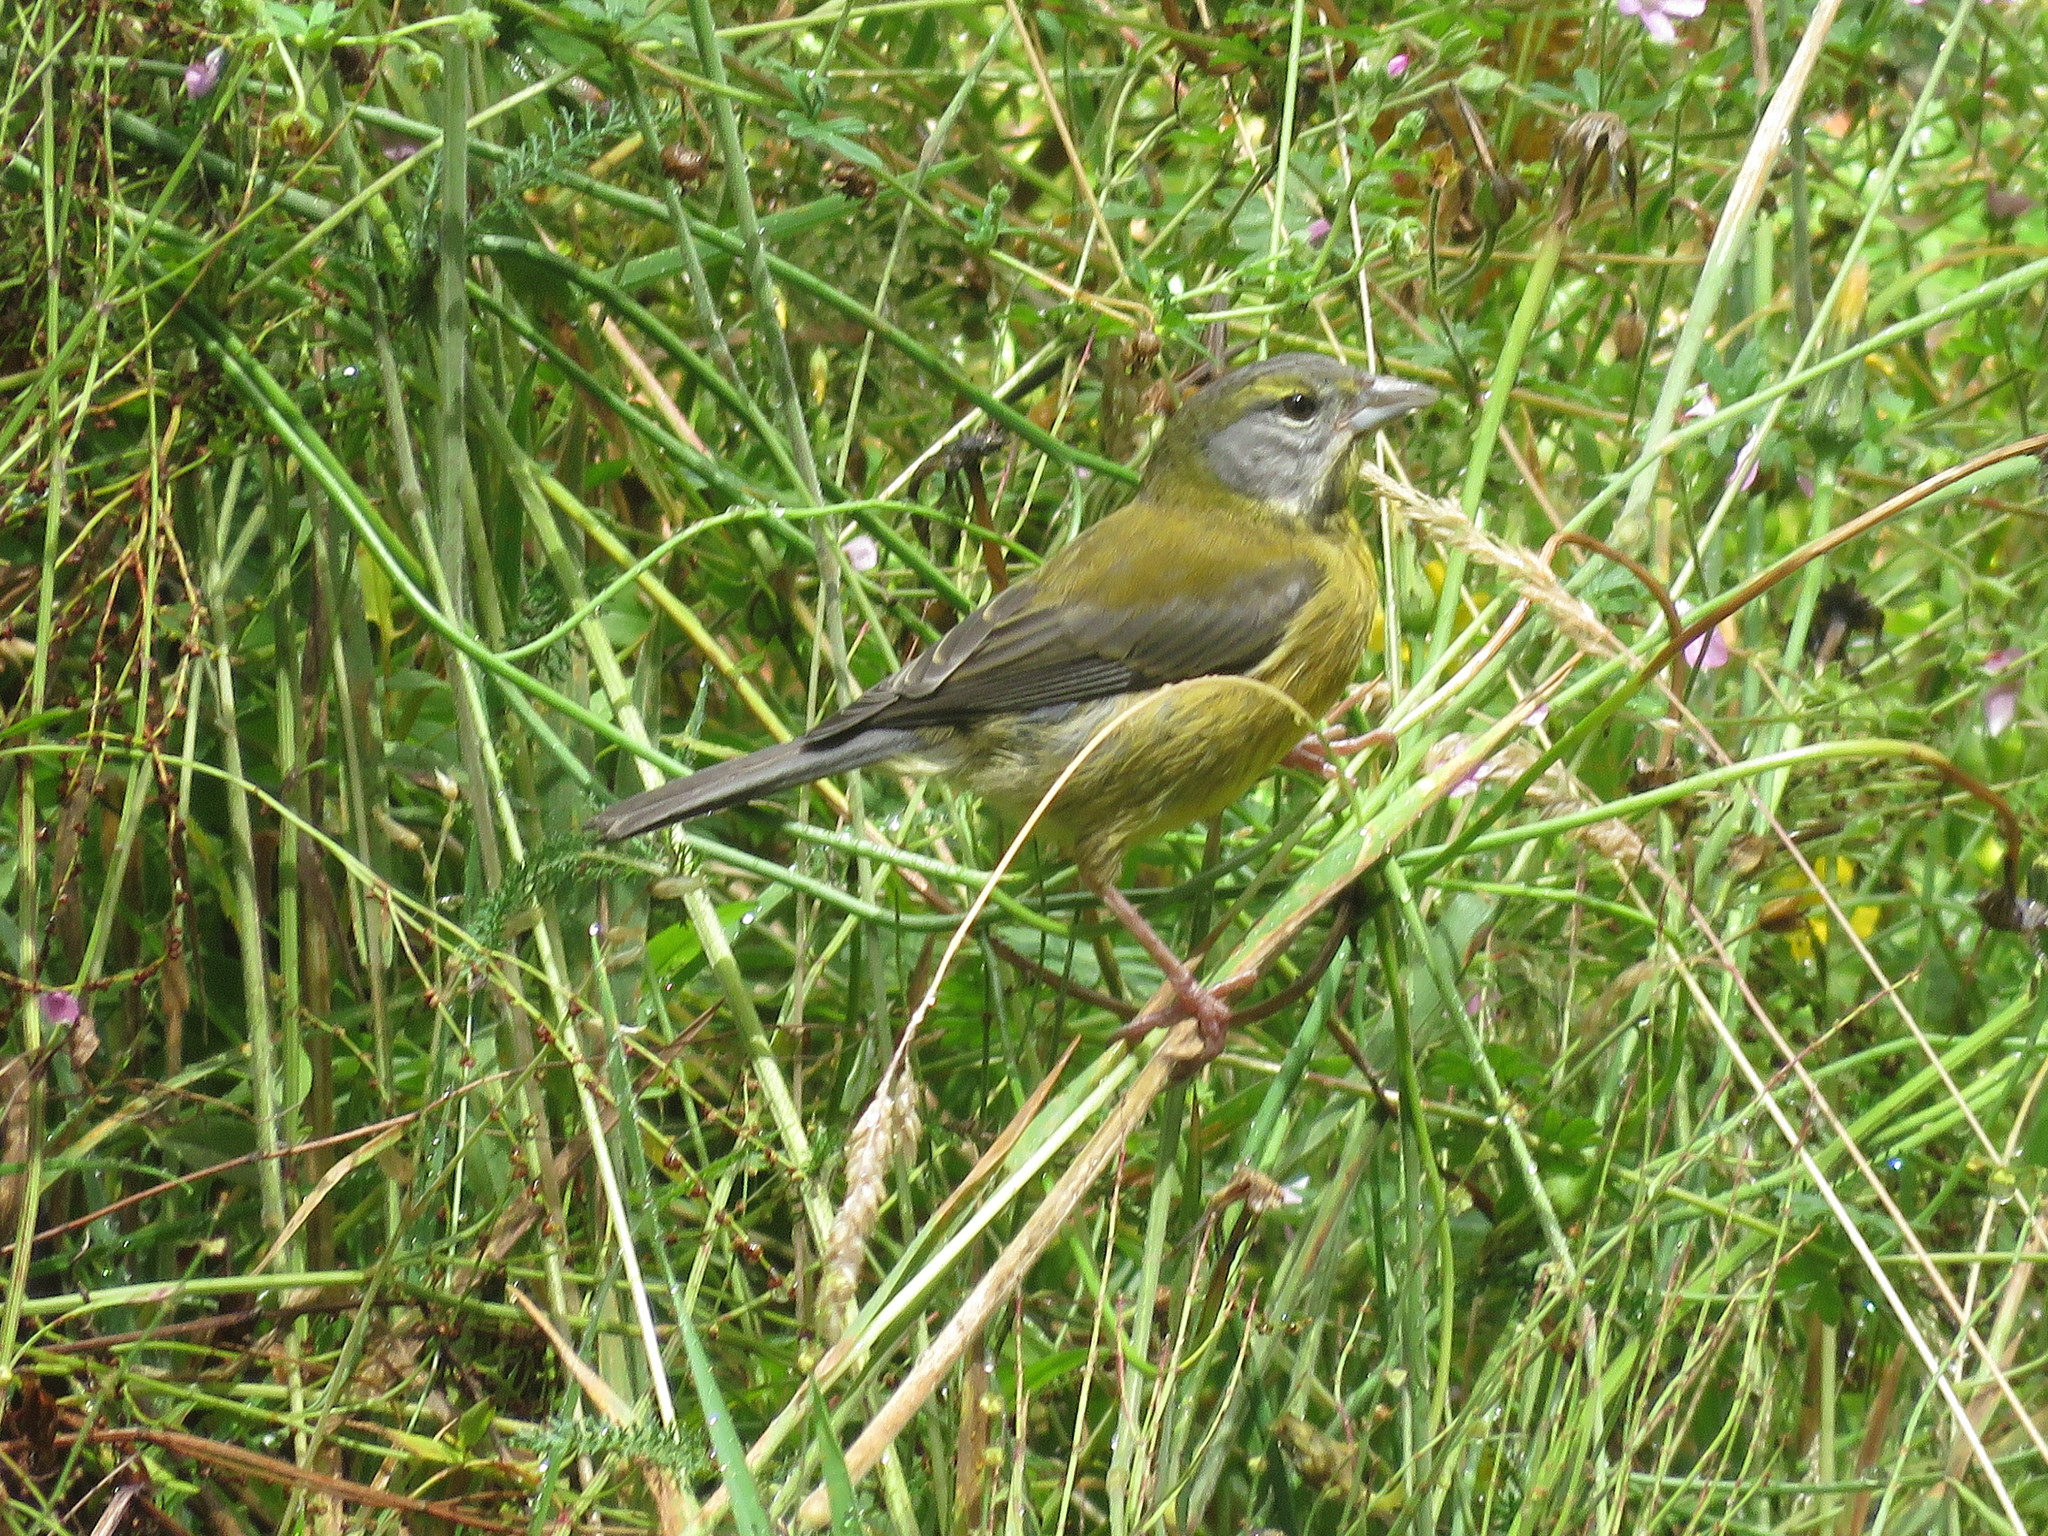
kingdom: Animalia
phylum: Chordata
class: Aves
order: Passeriformes
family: Thraupidae
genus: Phrygilus
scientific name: Phrygilus gayi
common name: Grey-hooded sierra finch
